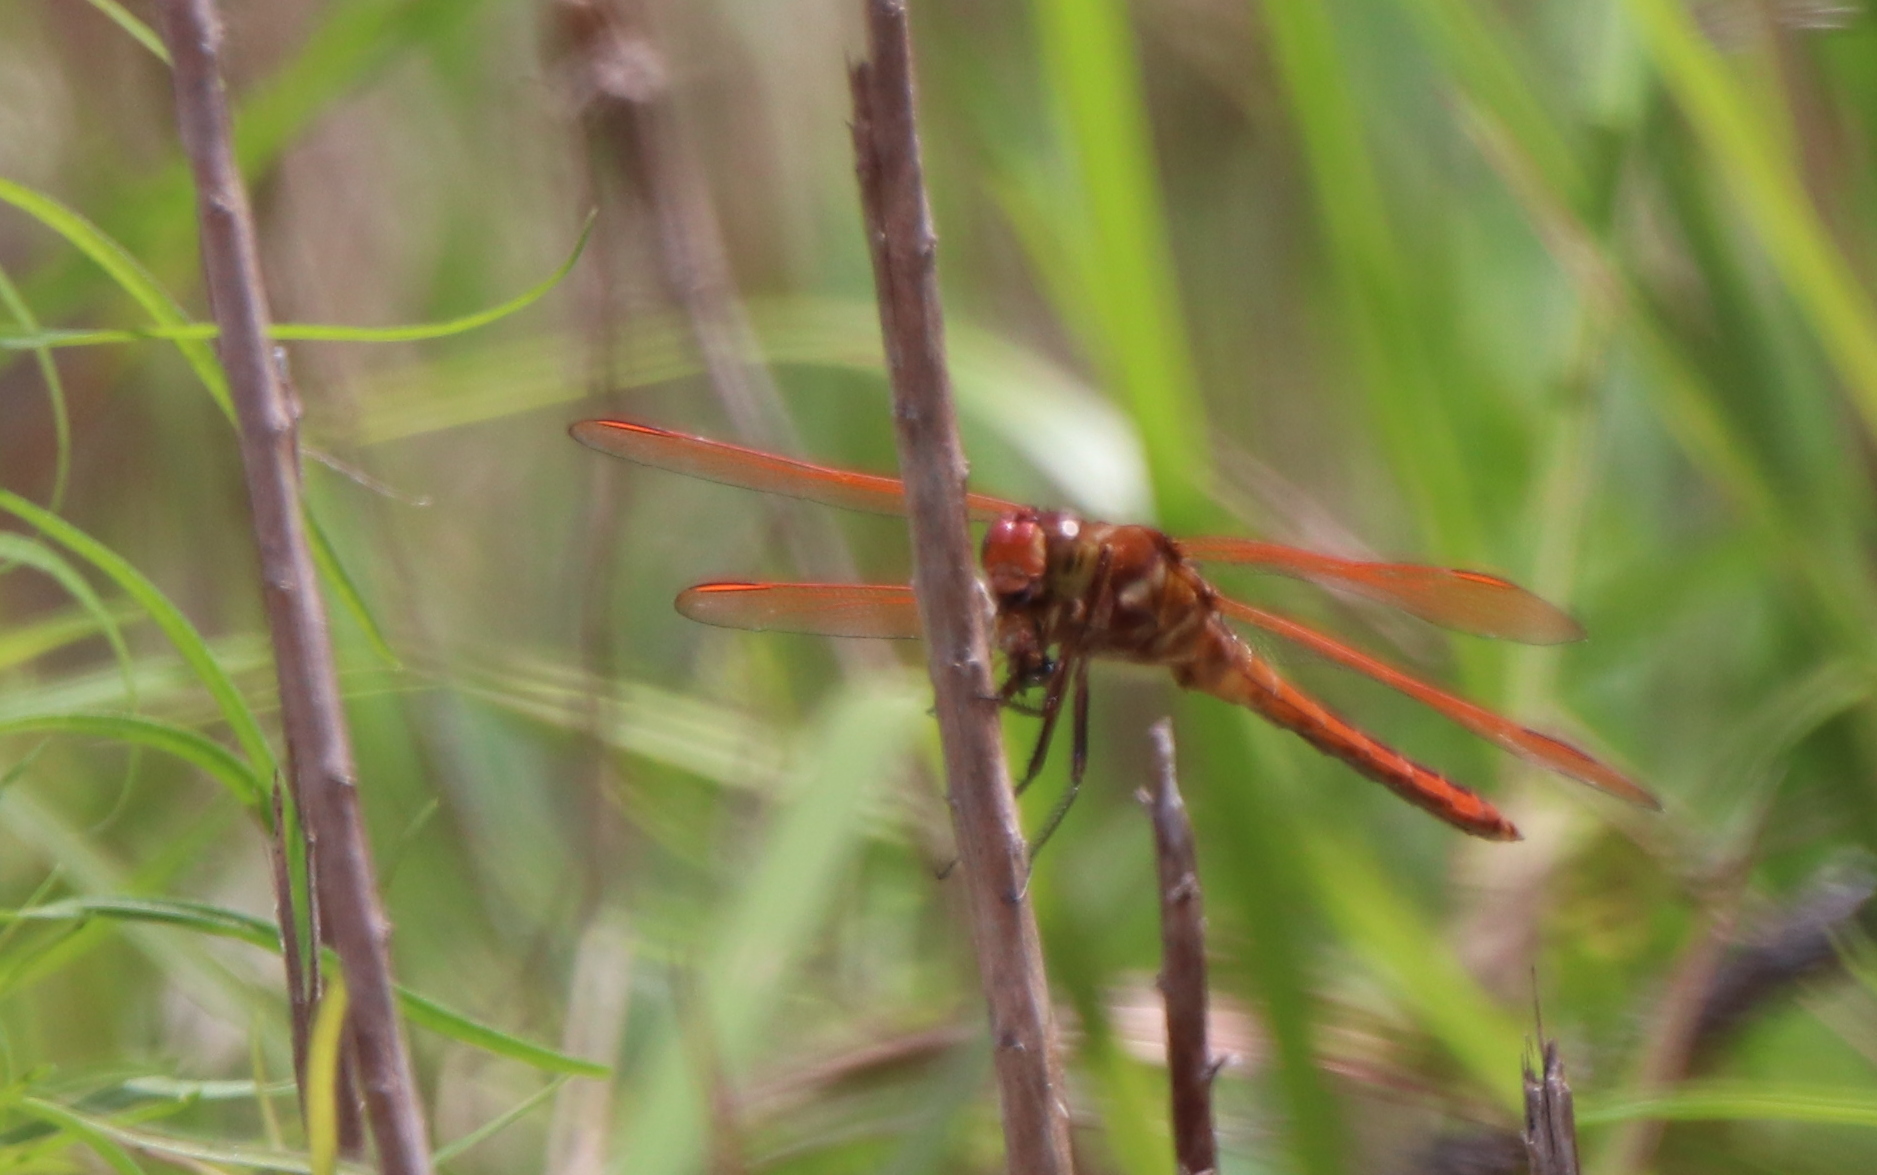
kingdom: Animalia
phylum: Arthropoda
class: Insecta
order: Odonata
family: Libellulidae
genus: Libellula
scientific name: Libellula auripennis
